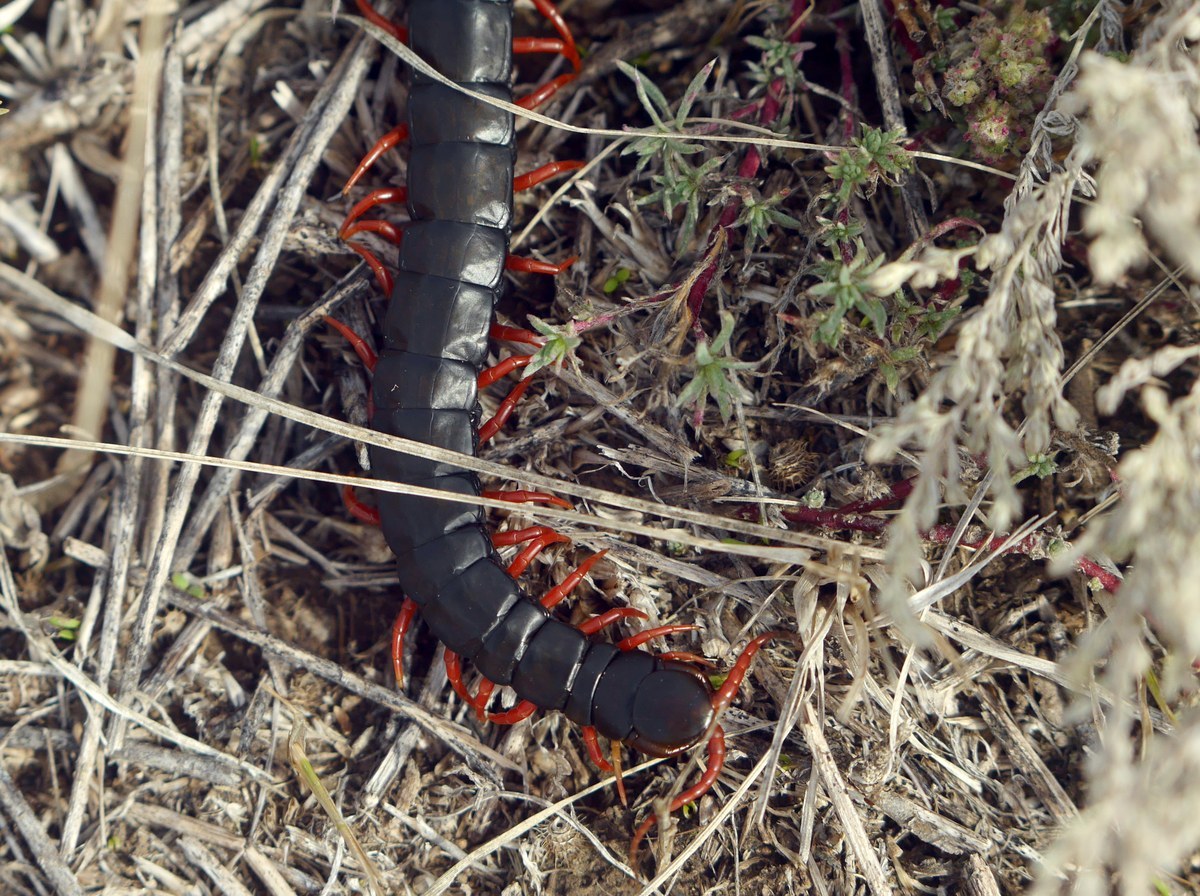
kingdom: Animalia
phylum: Arthropoda
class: Chilopoda
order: Scolopendromorpha
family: Scolopendridae
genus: Scolopendra
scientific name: Scolopendra cingulata
